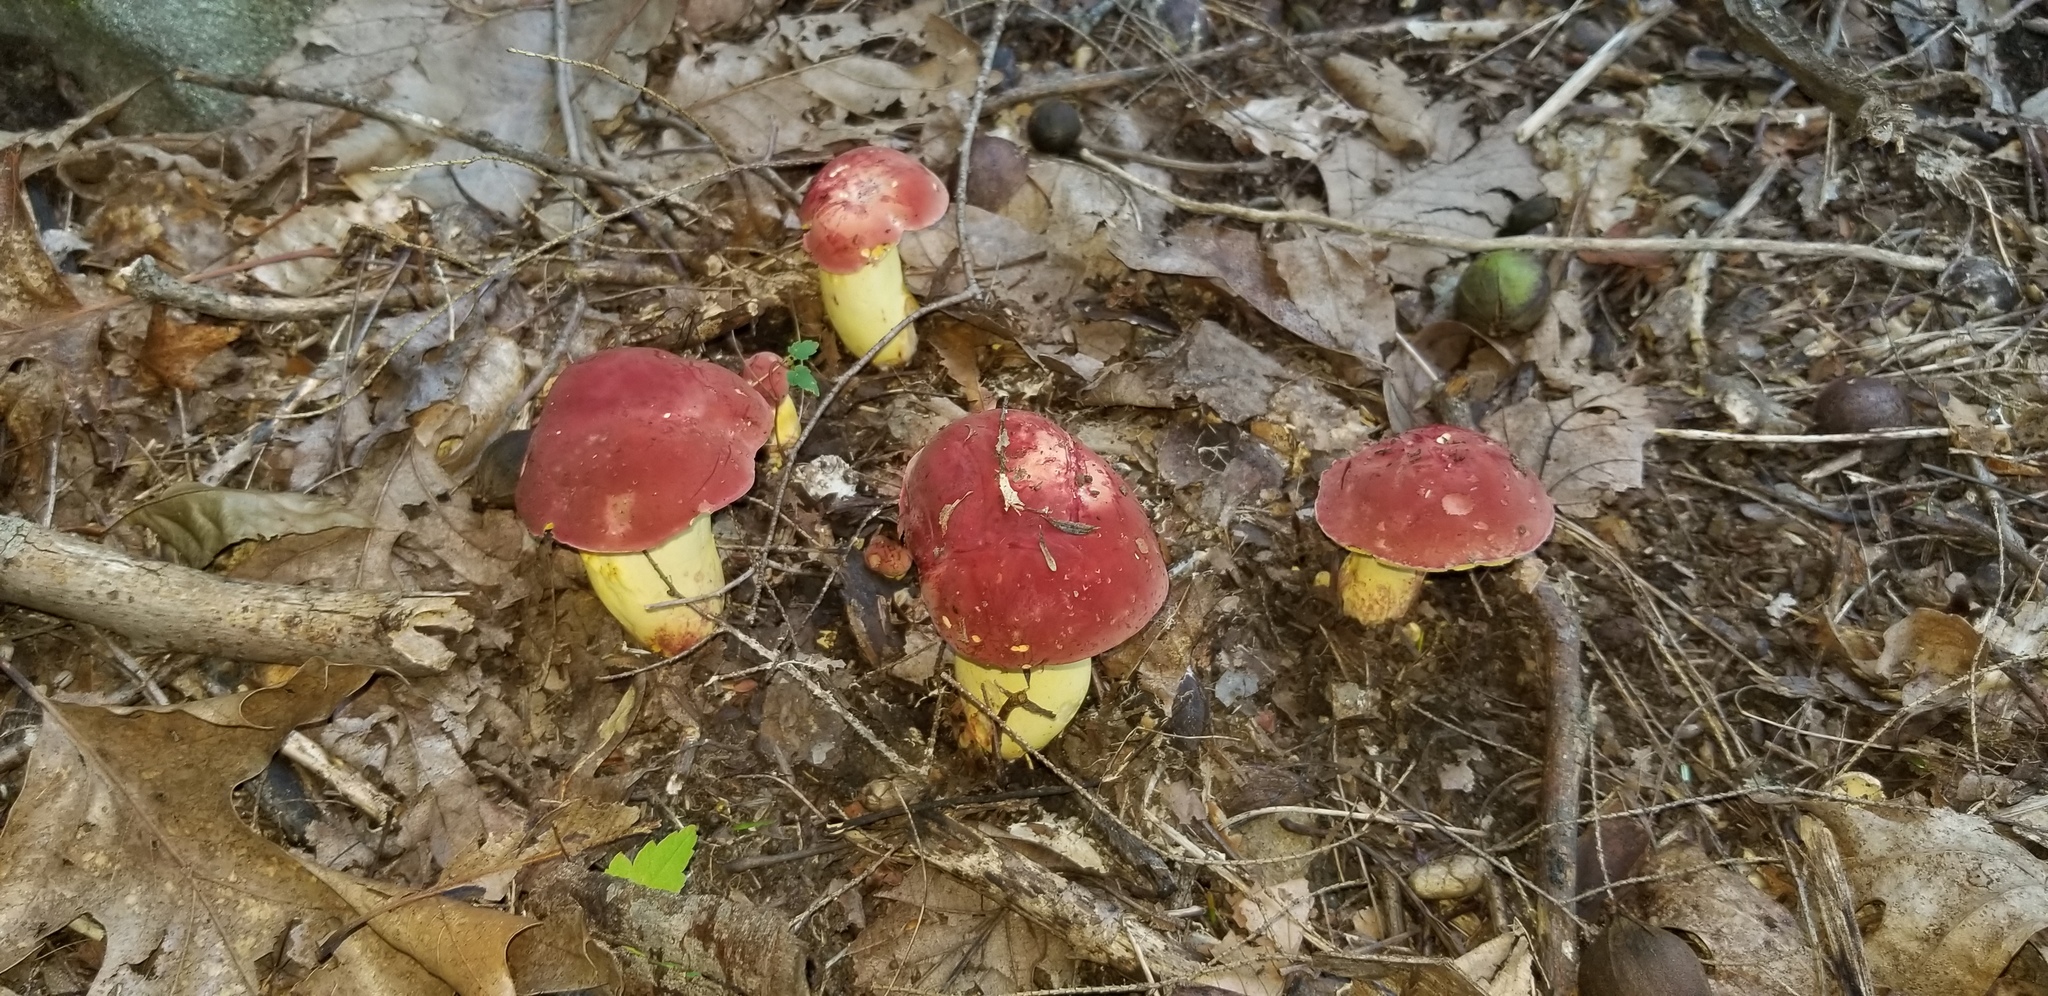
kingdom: Fungi
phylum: Basidiomycota
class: Agaricomycetes
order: Boletales
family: Boletaceae
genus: Boletus
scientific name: Boletus roodyi
